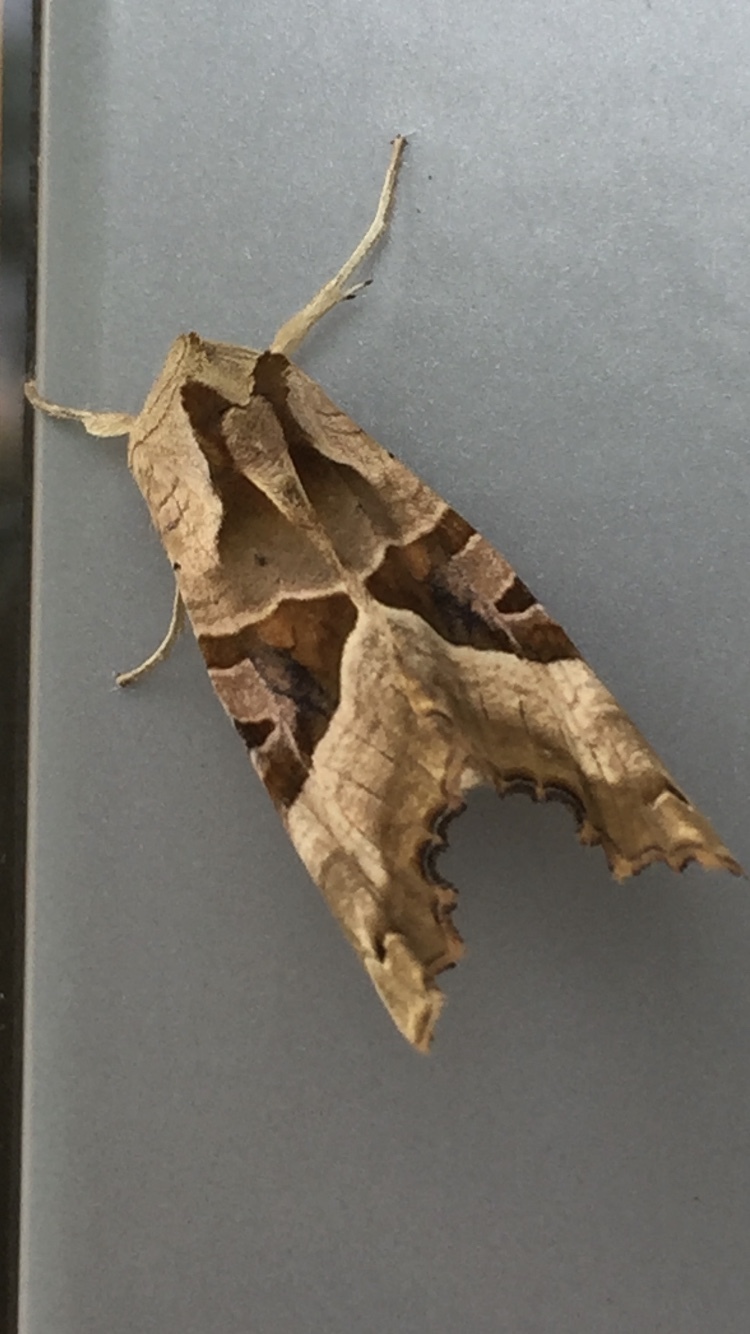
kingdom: Animalia
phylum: Arthropoda
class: Insecta
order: Lepidoptera
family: Noctuidae
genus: Phlogophora
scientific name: Phlogophora meticulosa
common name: Angle shades
